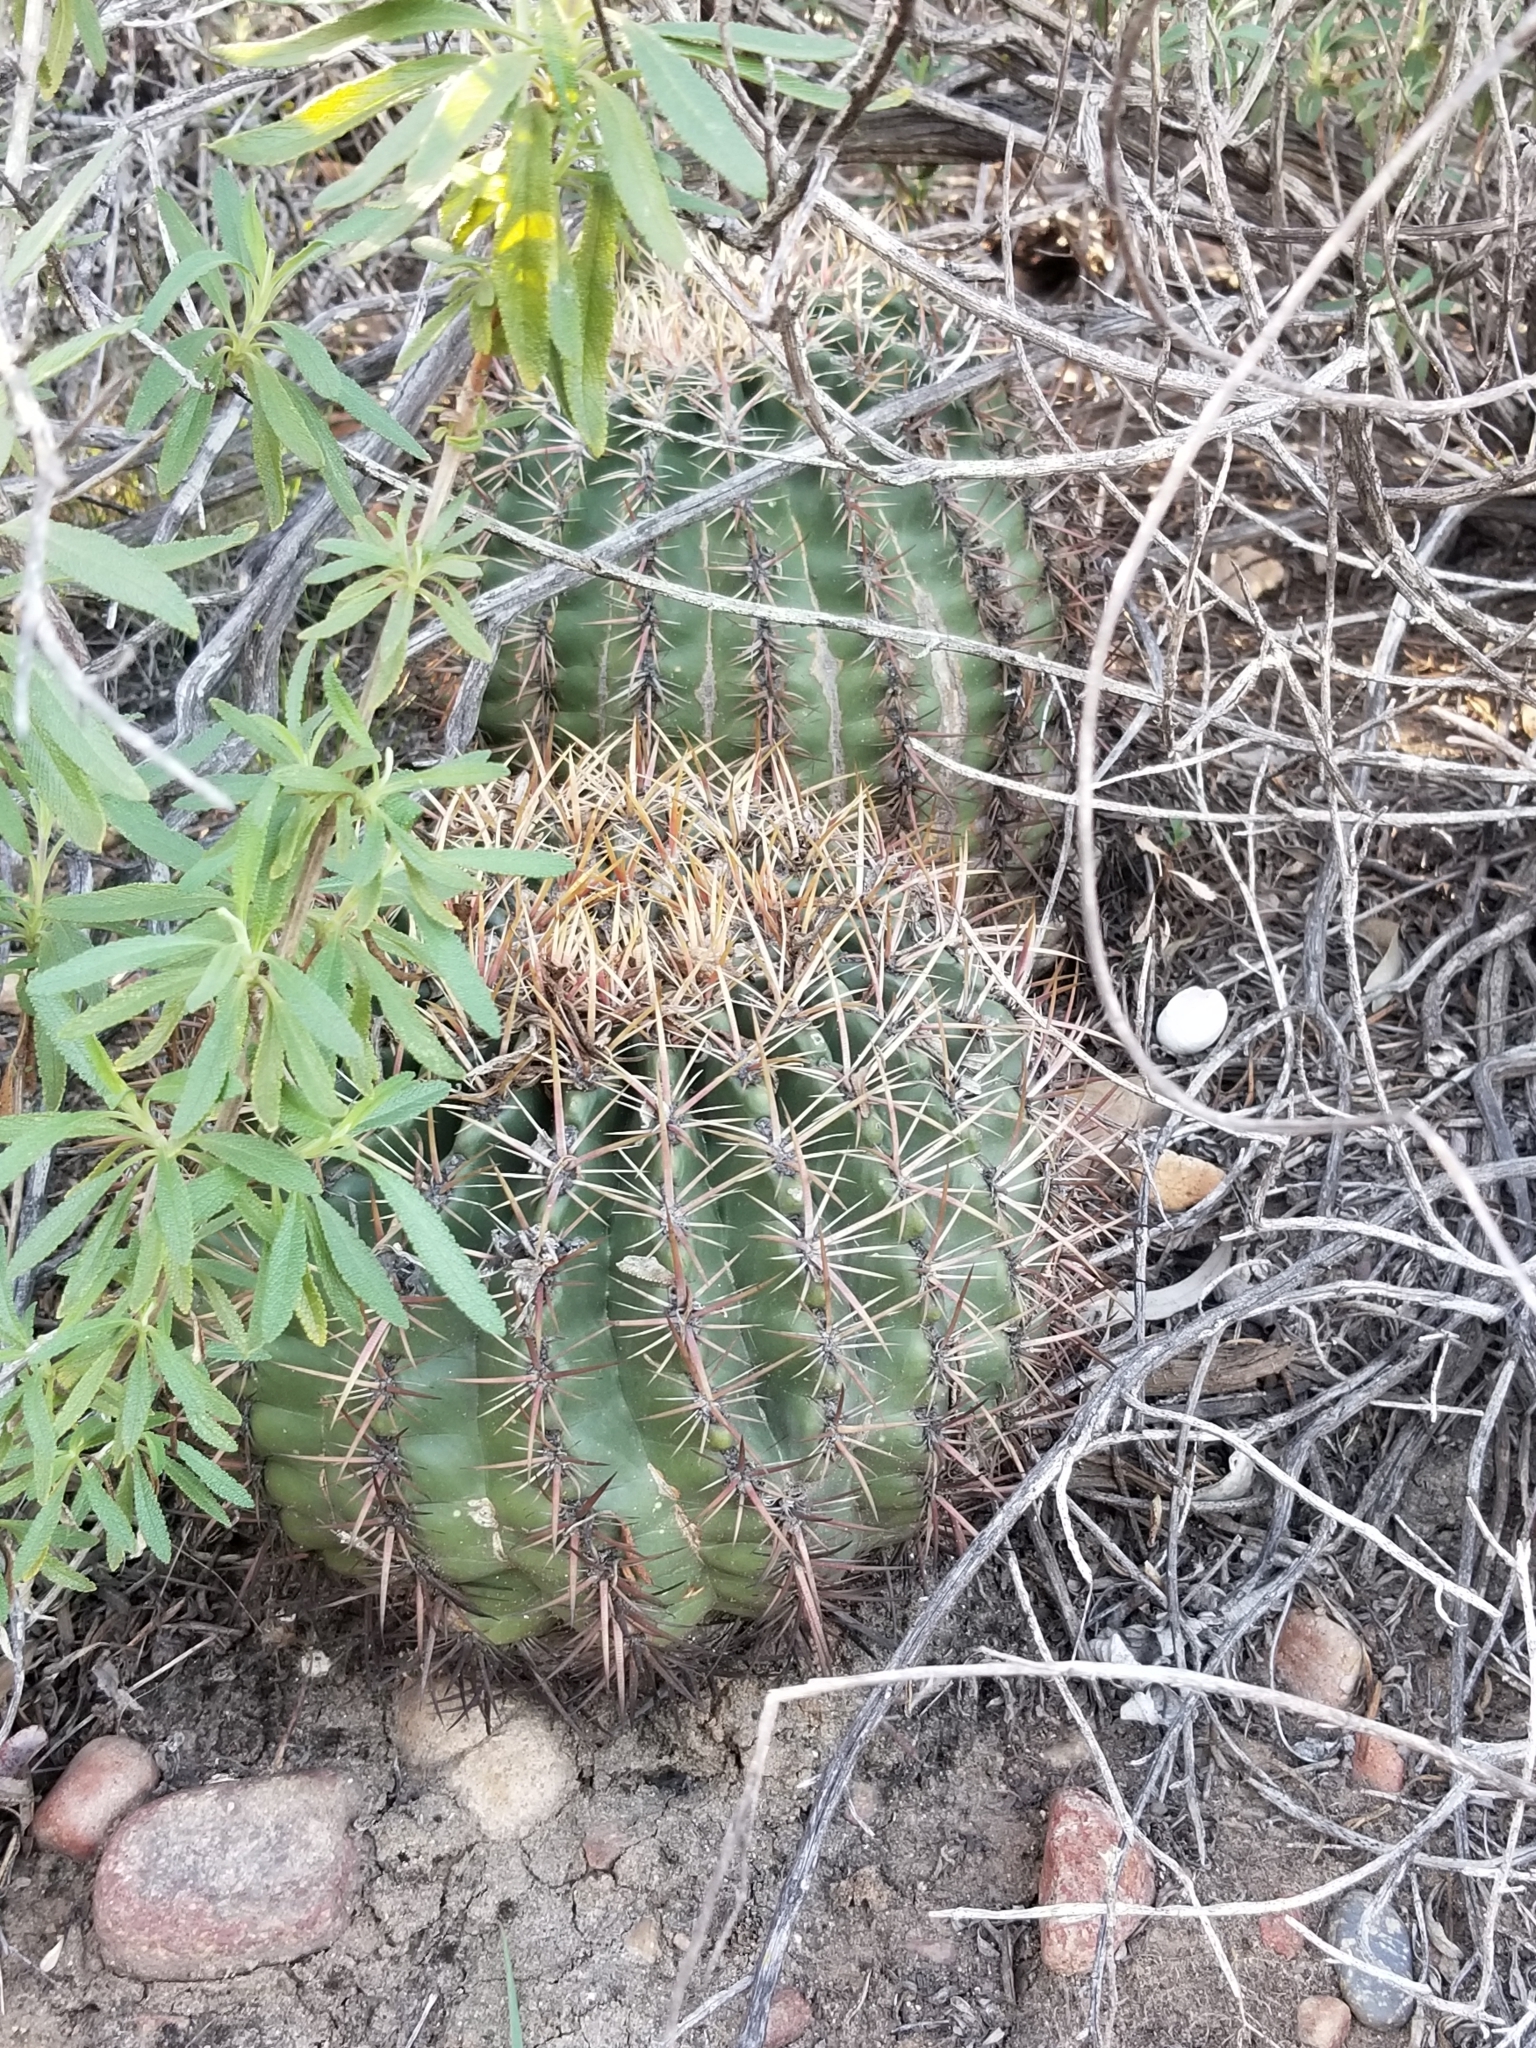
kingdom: Plantae
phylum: Tracheophyta
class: Magnoliopsida
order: Caryophyllales
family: Cactaceae
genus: Ferocactus
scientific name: Ferocactus viridescens
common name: San diego barrel cactus
